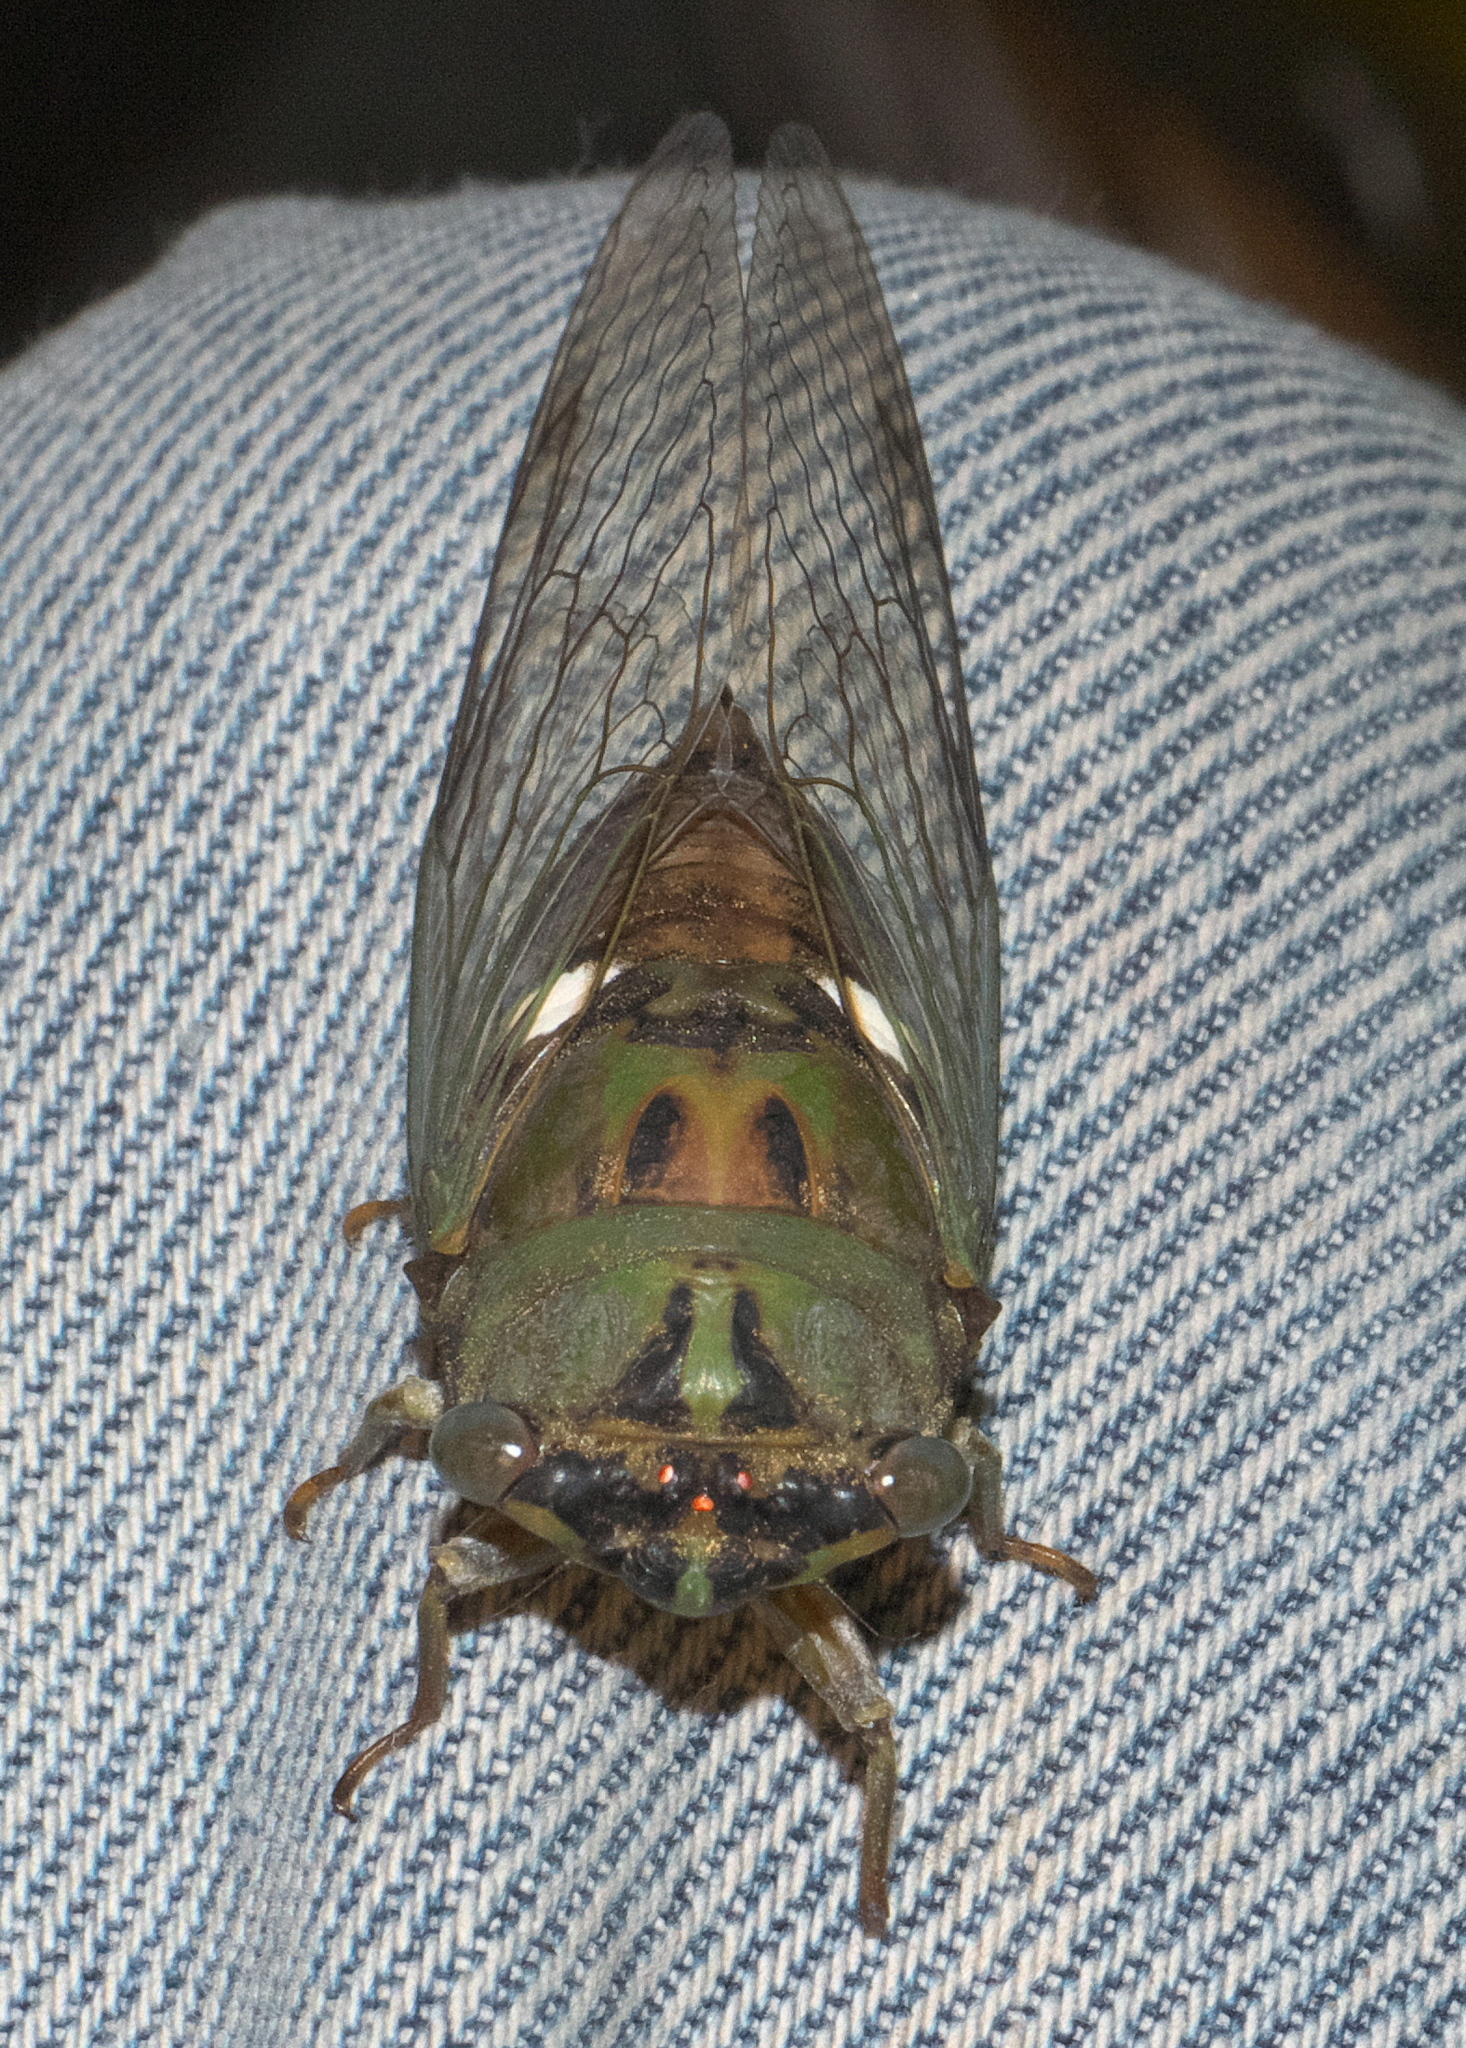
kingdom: Animalia
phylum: Arthropoda
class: Insecta
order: Hemiptera
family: Cicadidae
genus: Neotibicen
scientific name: Neotibicen pruinosus
